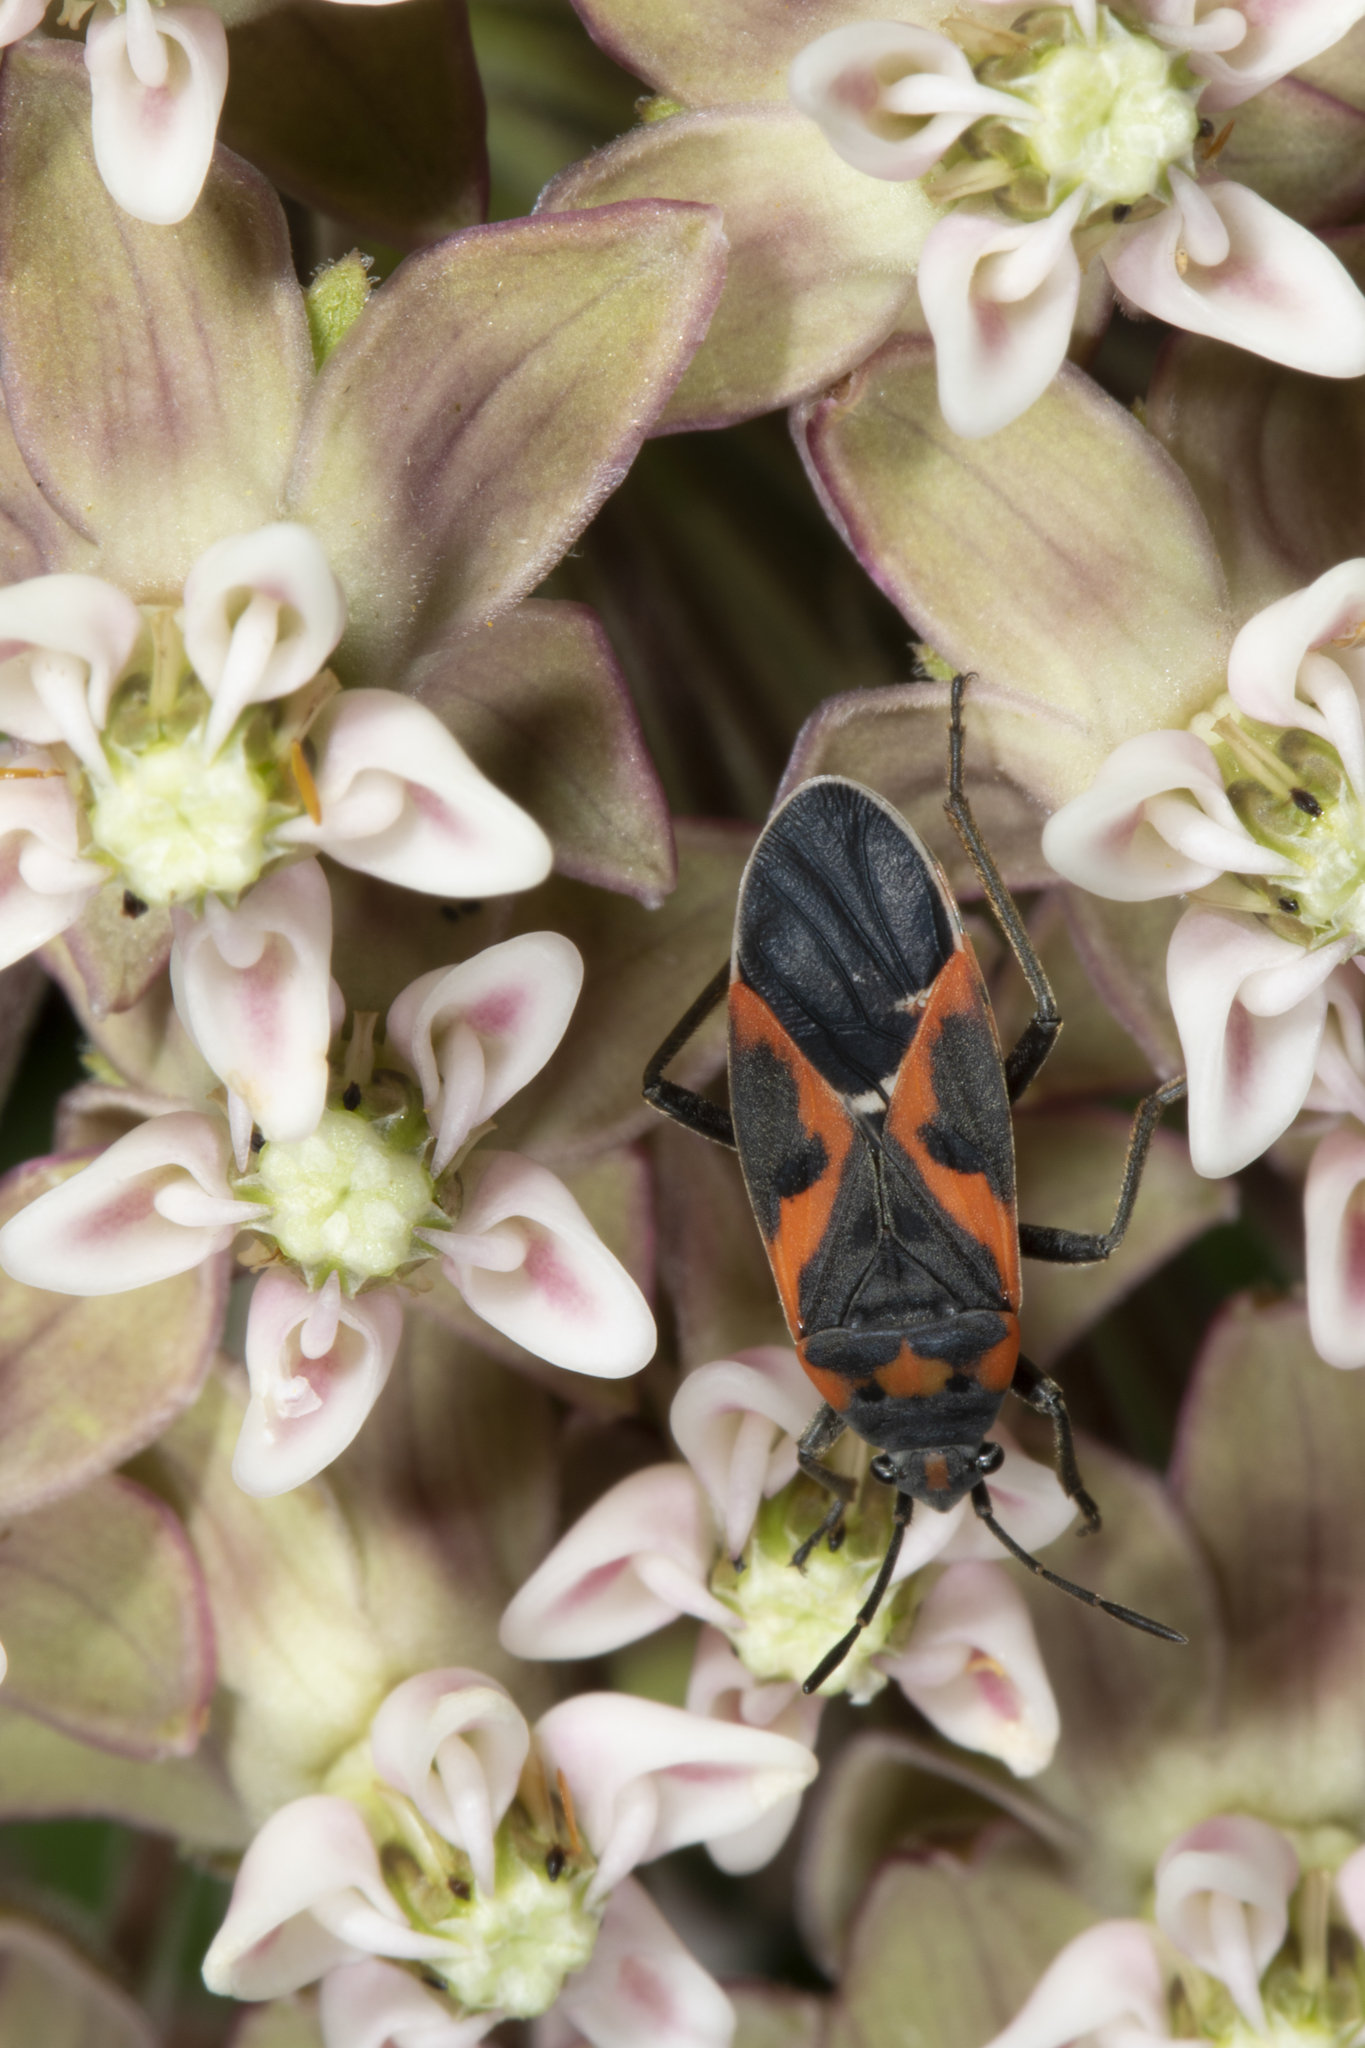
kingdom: Animalia
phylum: Arthropoda
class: Insecta
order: Hemiptera
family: Lygaeidae
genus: Lygaeus
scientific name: Lygaeus kalmii
